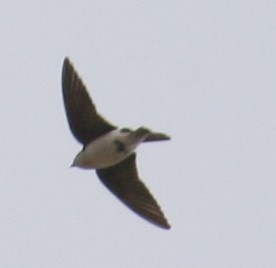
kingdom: Animalia
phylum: Chordata
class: Aves
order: Passeriformes
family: Hirundinidae
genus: Tachycineta
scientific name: Tachycineta bicolor
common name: Tree swallow
